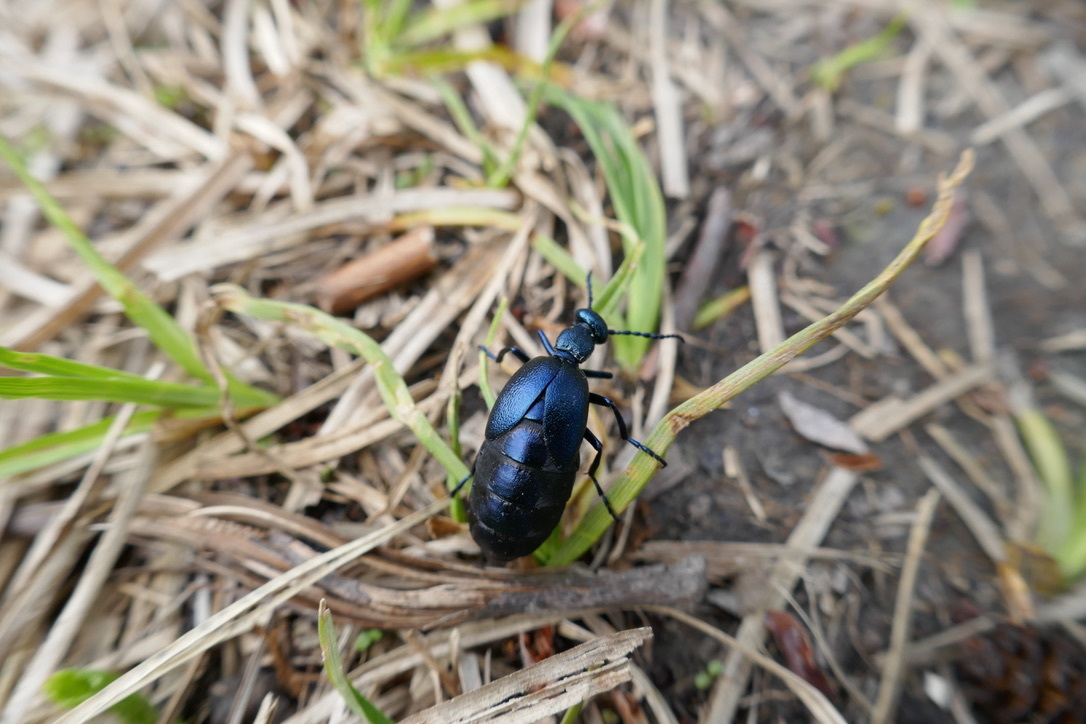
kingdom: Animalia
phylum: Arthropoda
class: Insecta
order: Coleoptera
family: Meloidae
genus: Meloe
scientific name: Meloe violaceus
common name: Violet oil-beetle
